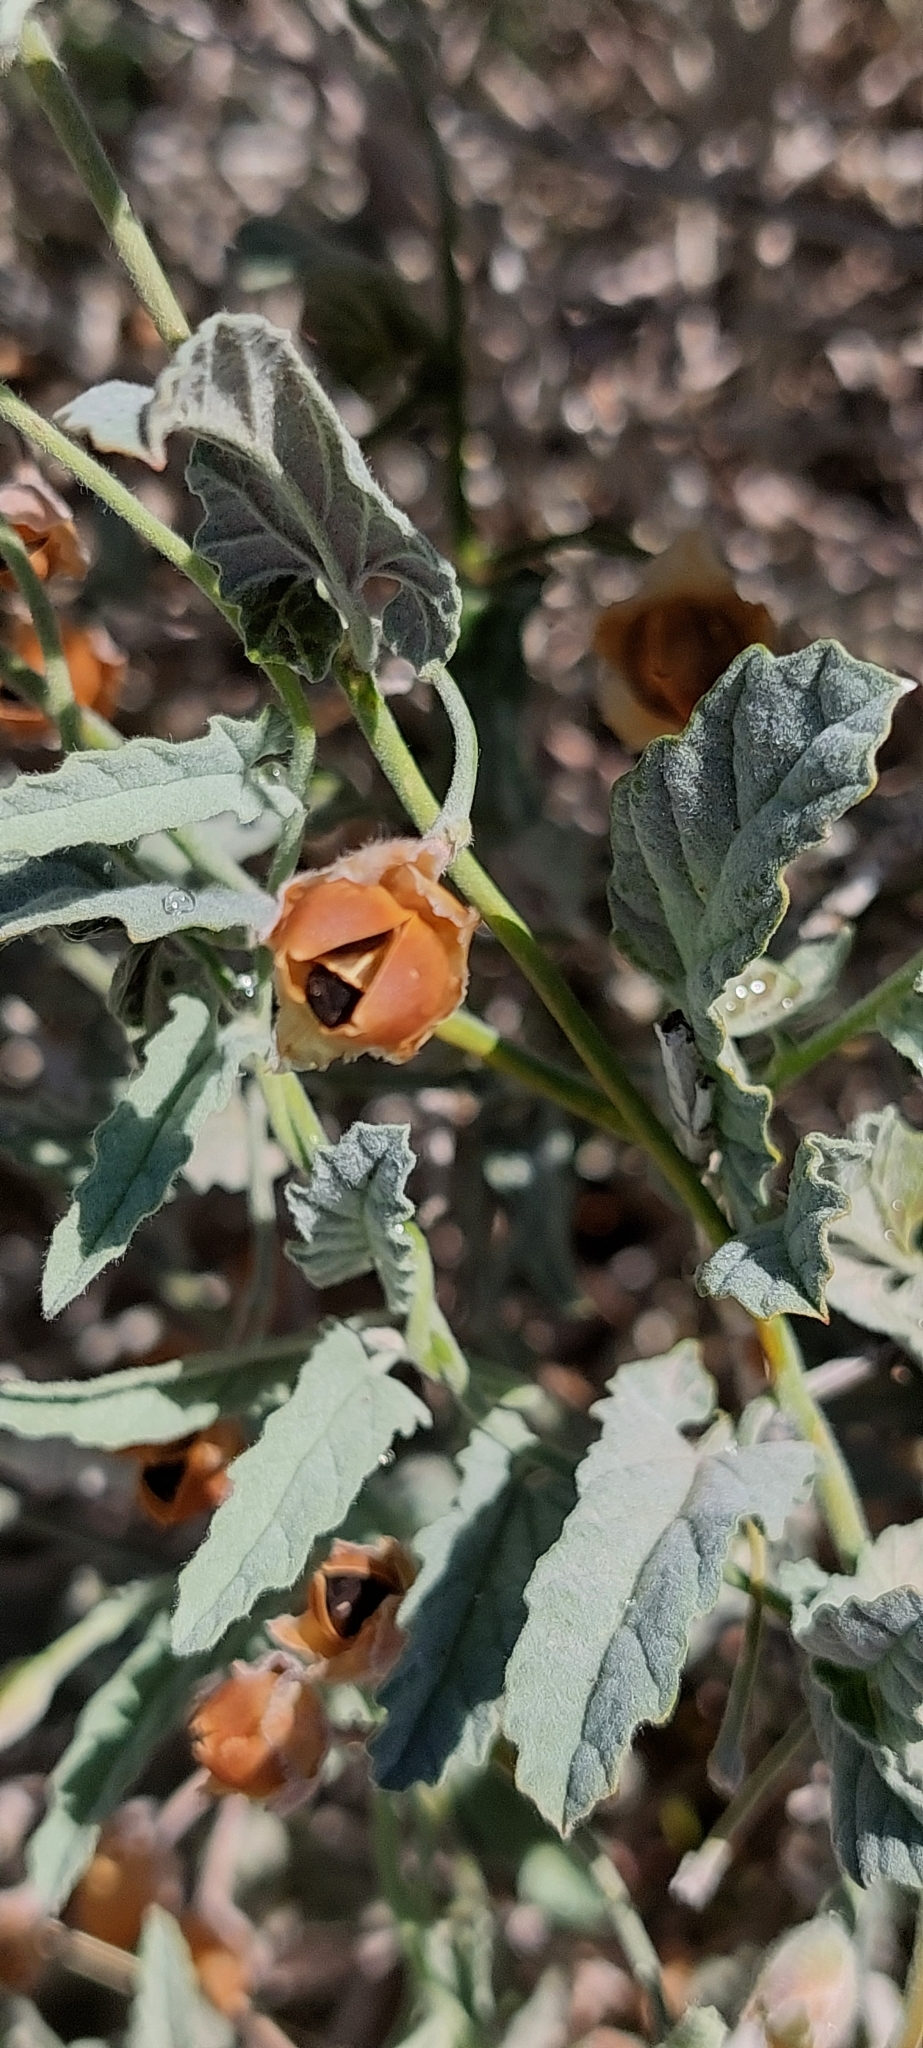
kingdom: Plantae
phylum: Tracheophyta
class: Magnoliopsida
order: Solanales
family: Convolvulaceae
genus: Convolvulus
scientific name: Convolvulus hermanniae
